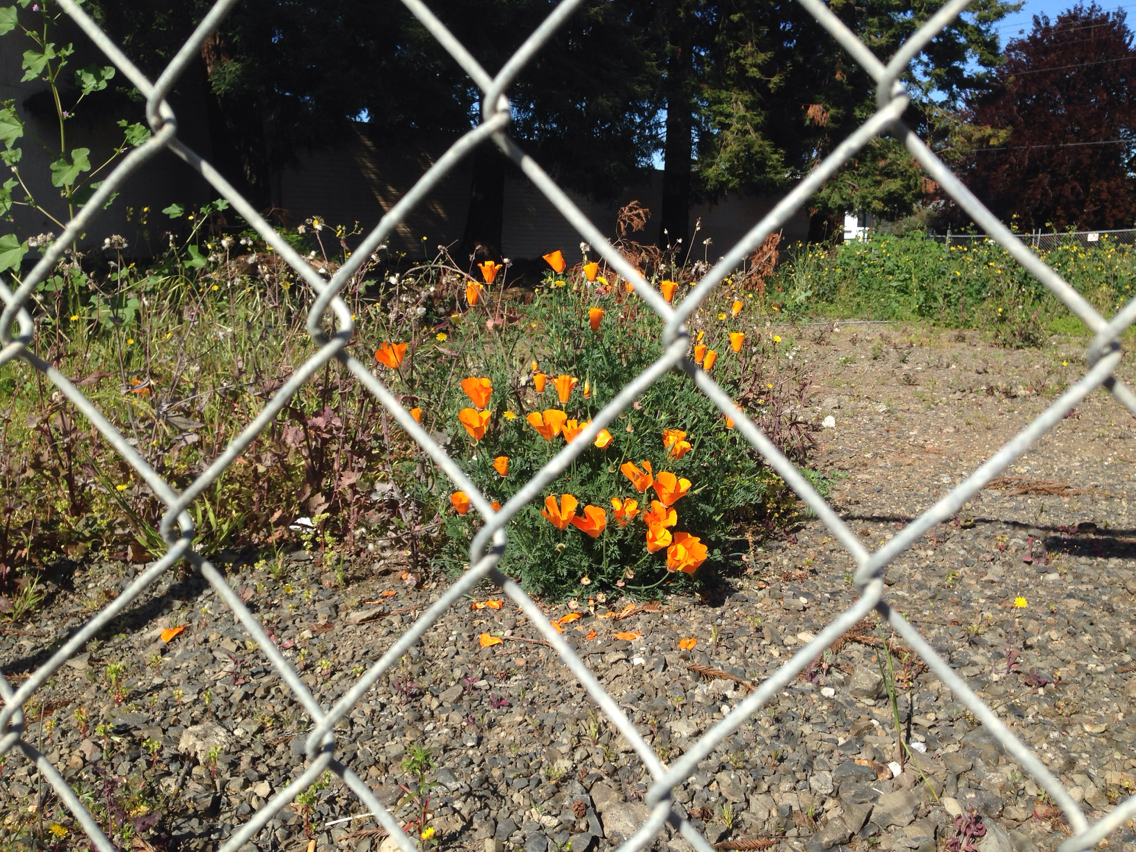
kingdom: Plantae
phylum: Tracheophyta
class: Magnoliopsida
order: Ranunculales
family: Papaveraceae
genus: Eschscholzia
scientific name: Eschscholzia californica
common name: California poppy
